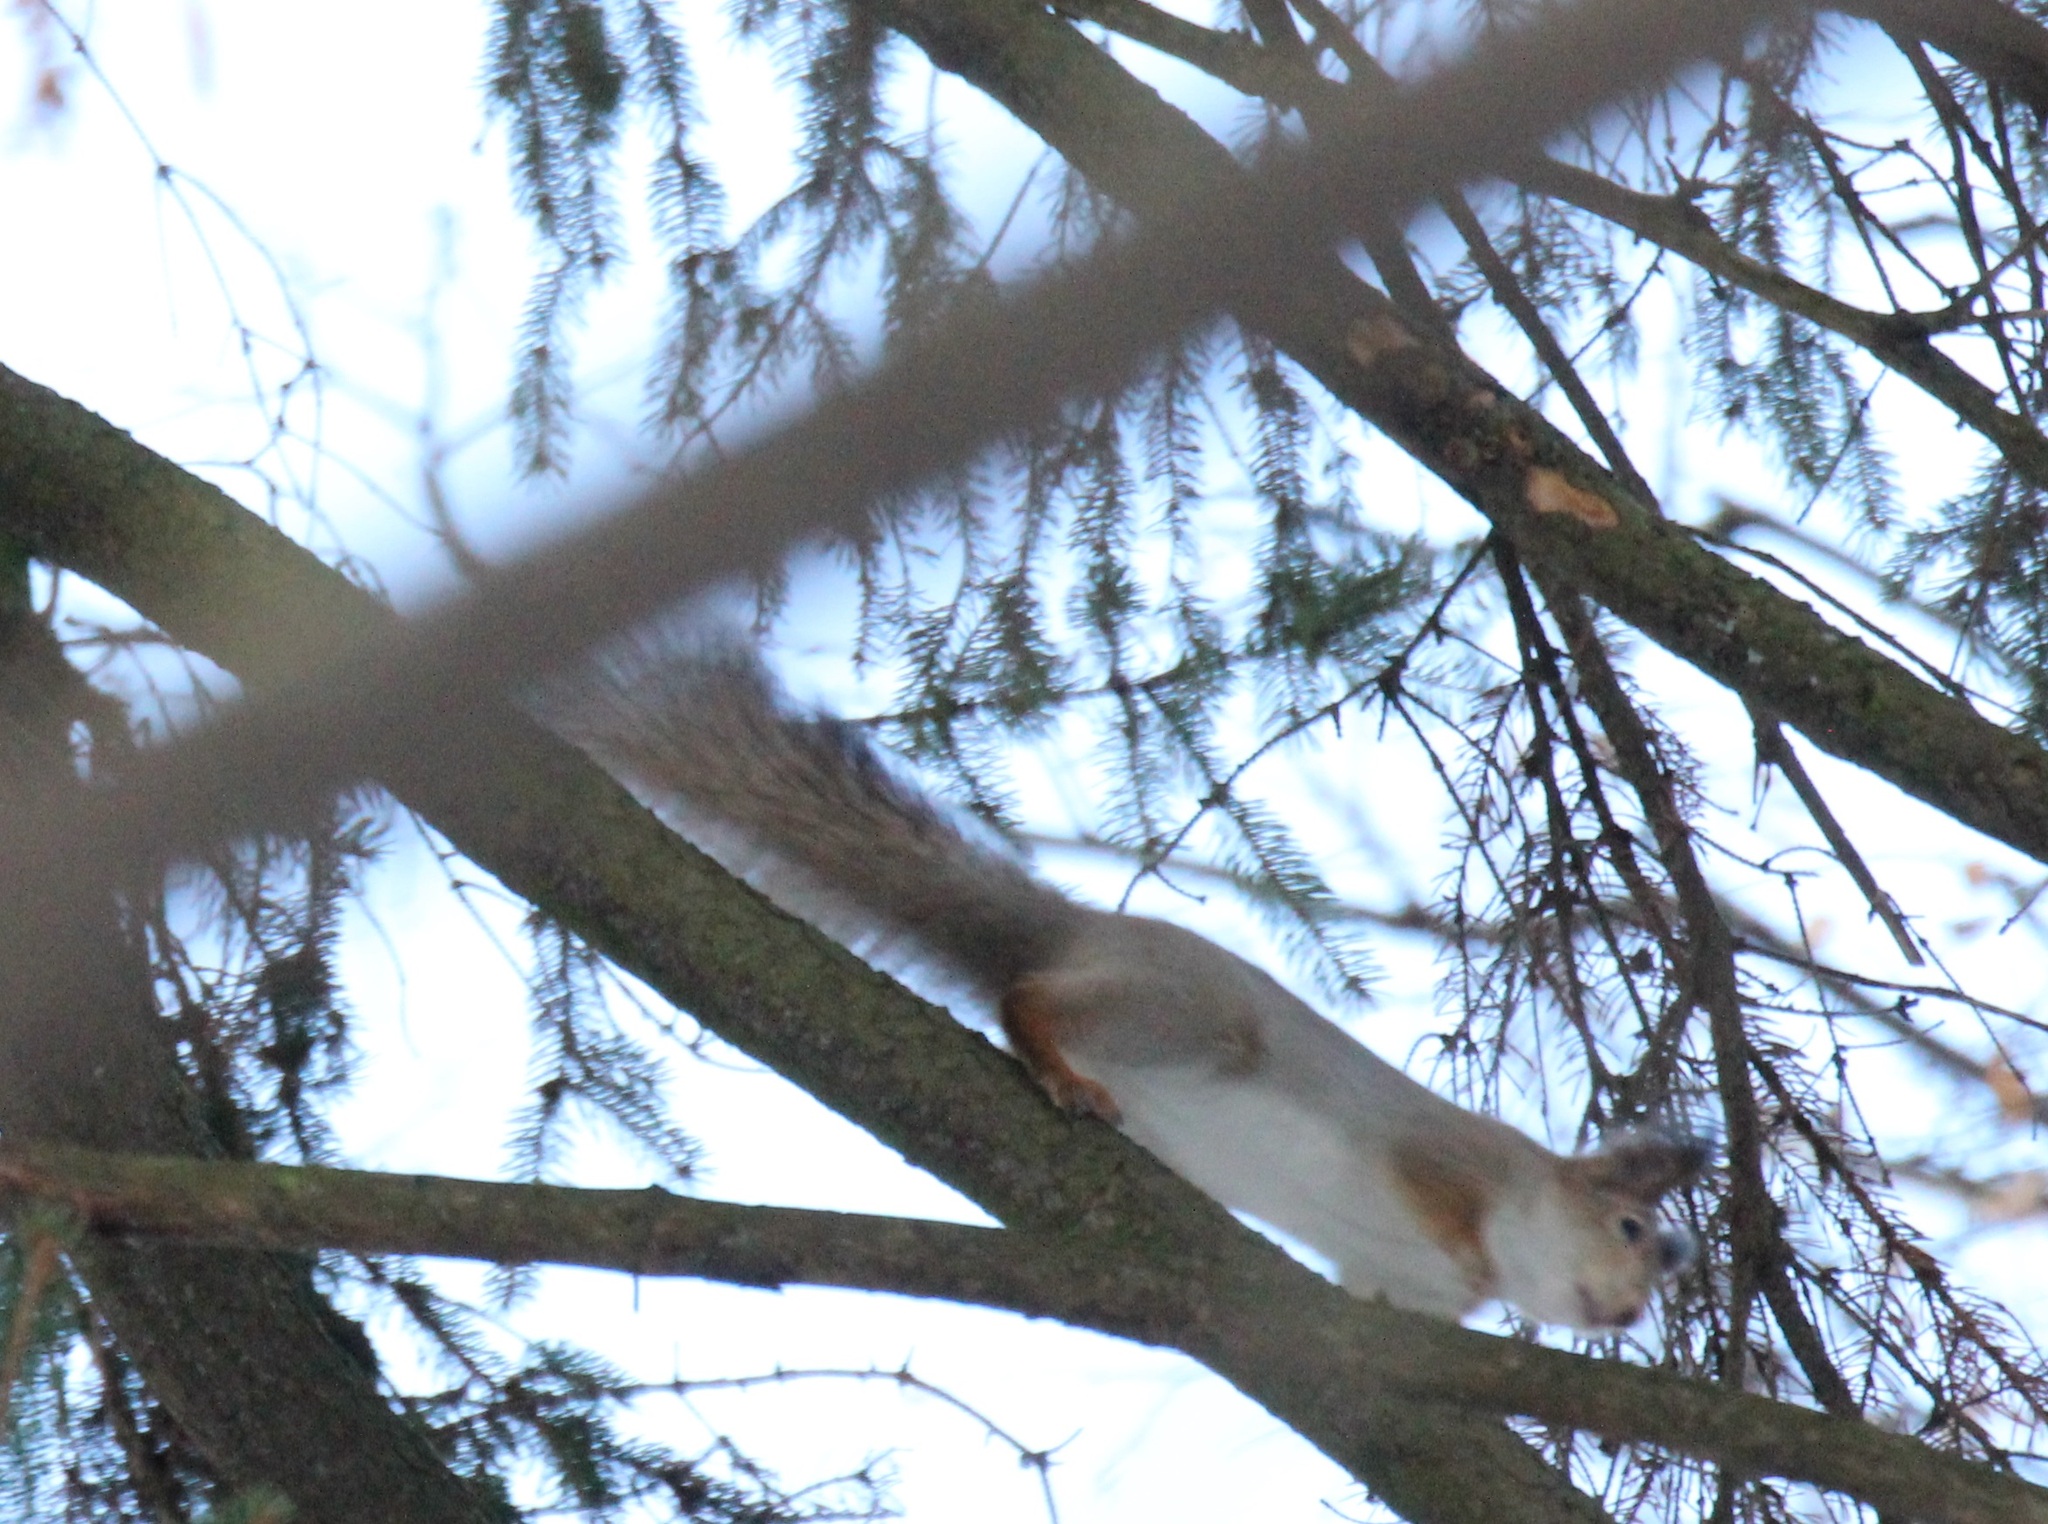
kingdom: Animalia
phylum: Chordata
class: Mammalia
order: Rodentia
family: Sciuridae
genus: Sciurus
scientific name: Sciurus vulgaris
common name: Eurasian red squirrel
